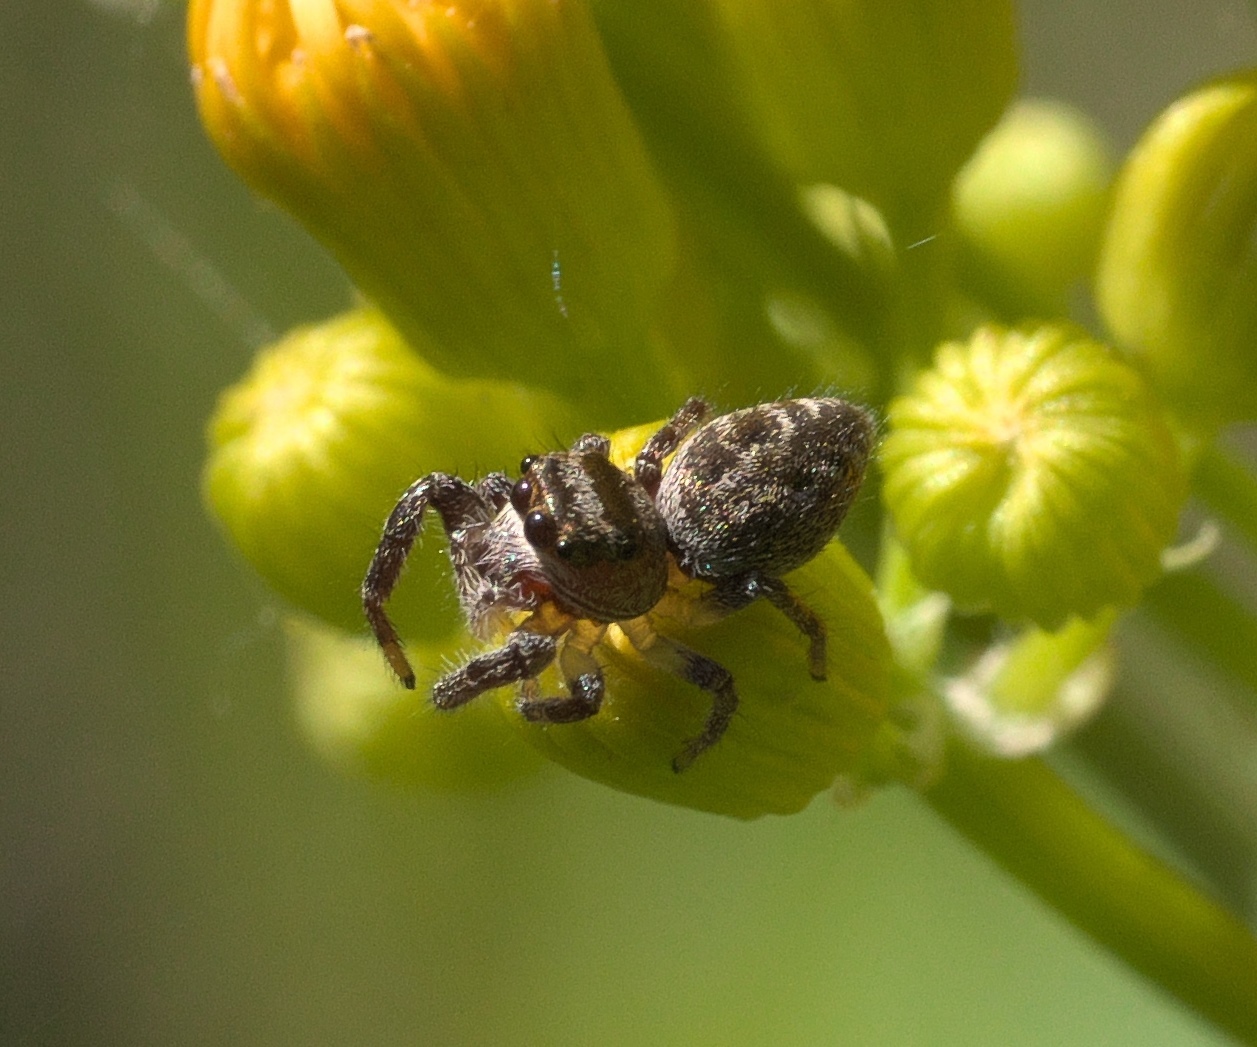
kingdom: Animalia
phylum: Arthropoda
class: Arachnida
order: Araneae
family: Salticidae
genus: Eris
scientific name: Eris militaris
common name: Bronze jumper
